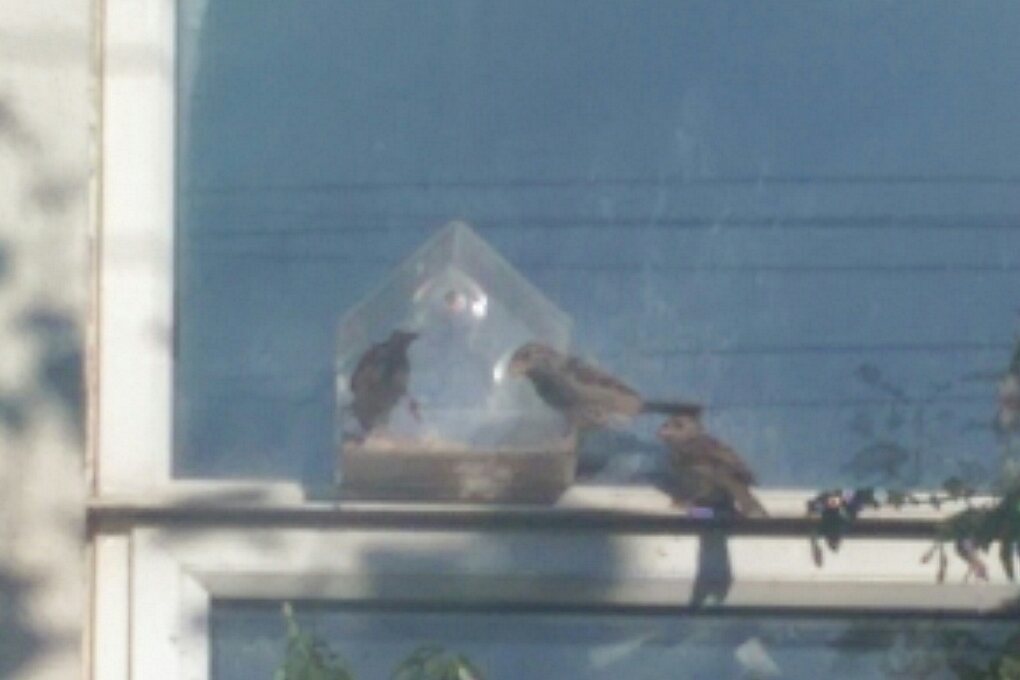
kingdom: Animalia
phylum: Chordata
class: Aves
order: Passeriformes
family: Passeridae
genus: Passer
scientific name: Passer domesticus
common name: House sparrow
